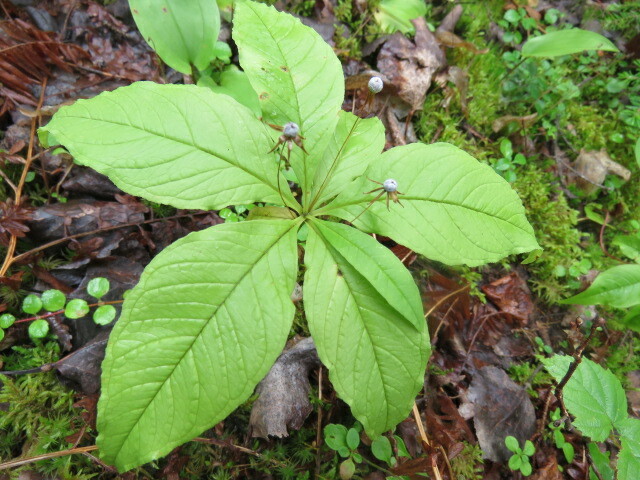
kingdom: Plantae
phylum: Tracheophyta
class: Magnoliopsida
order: Ericales
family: Primulaceae
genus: Lysimachia
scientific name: Lysimachia borealis
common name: American starflower
